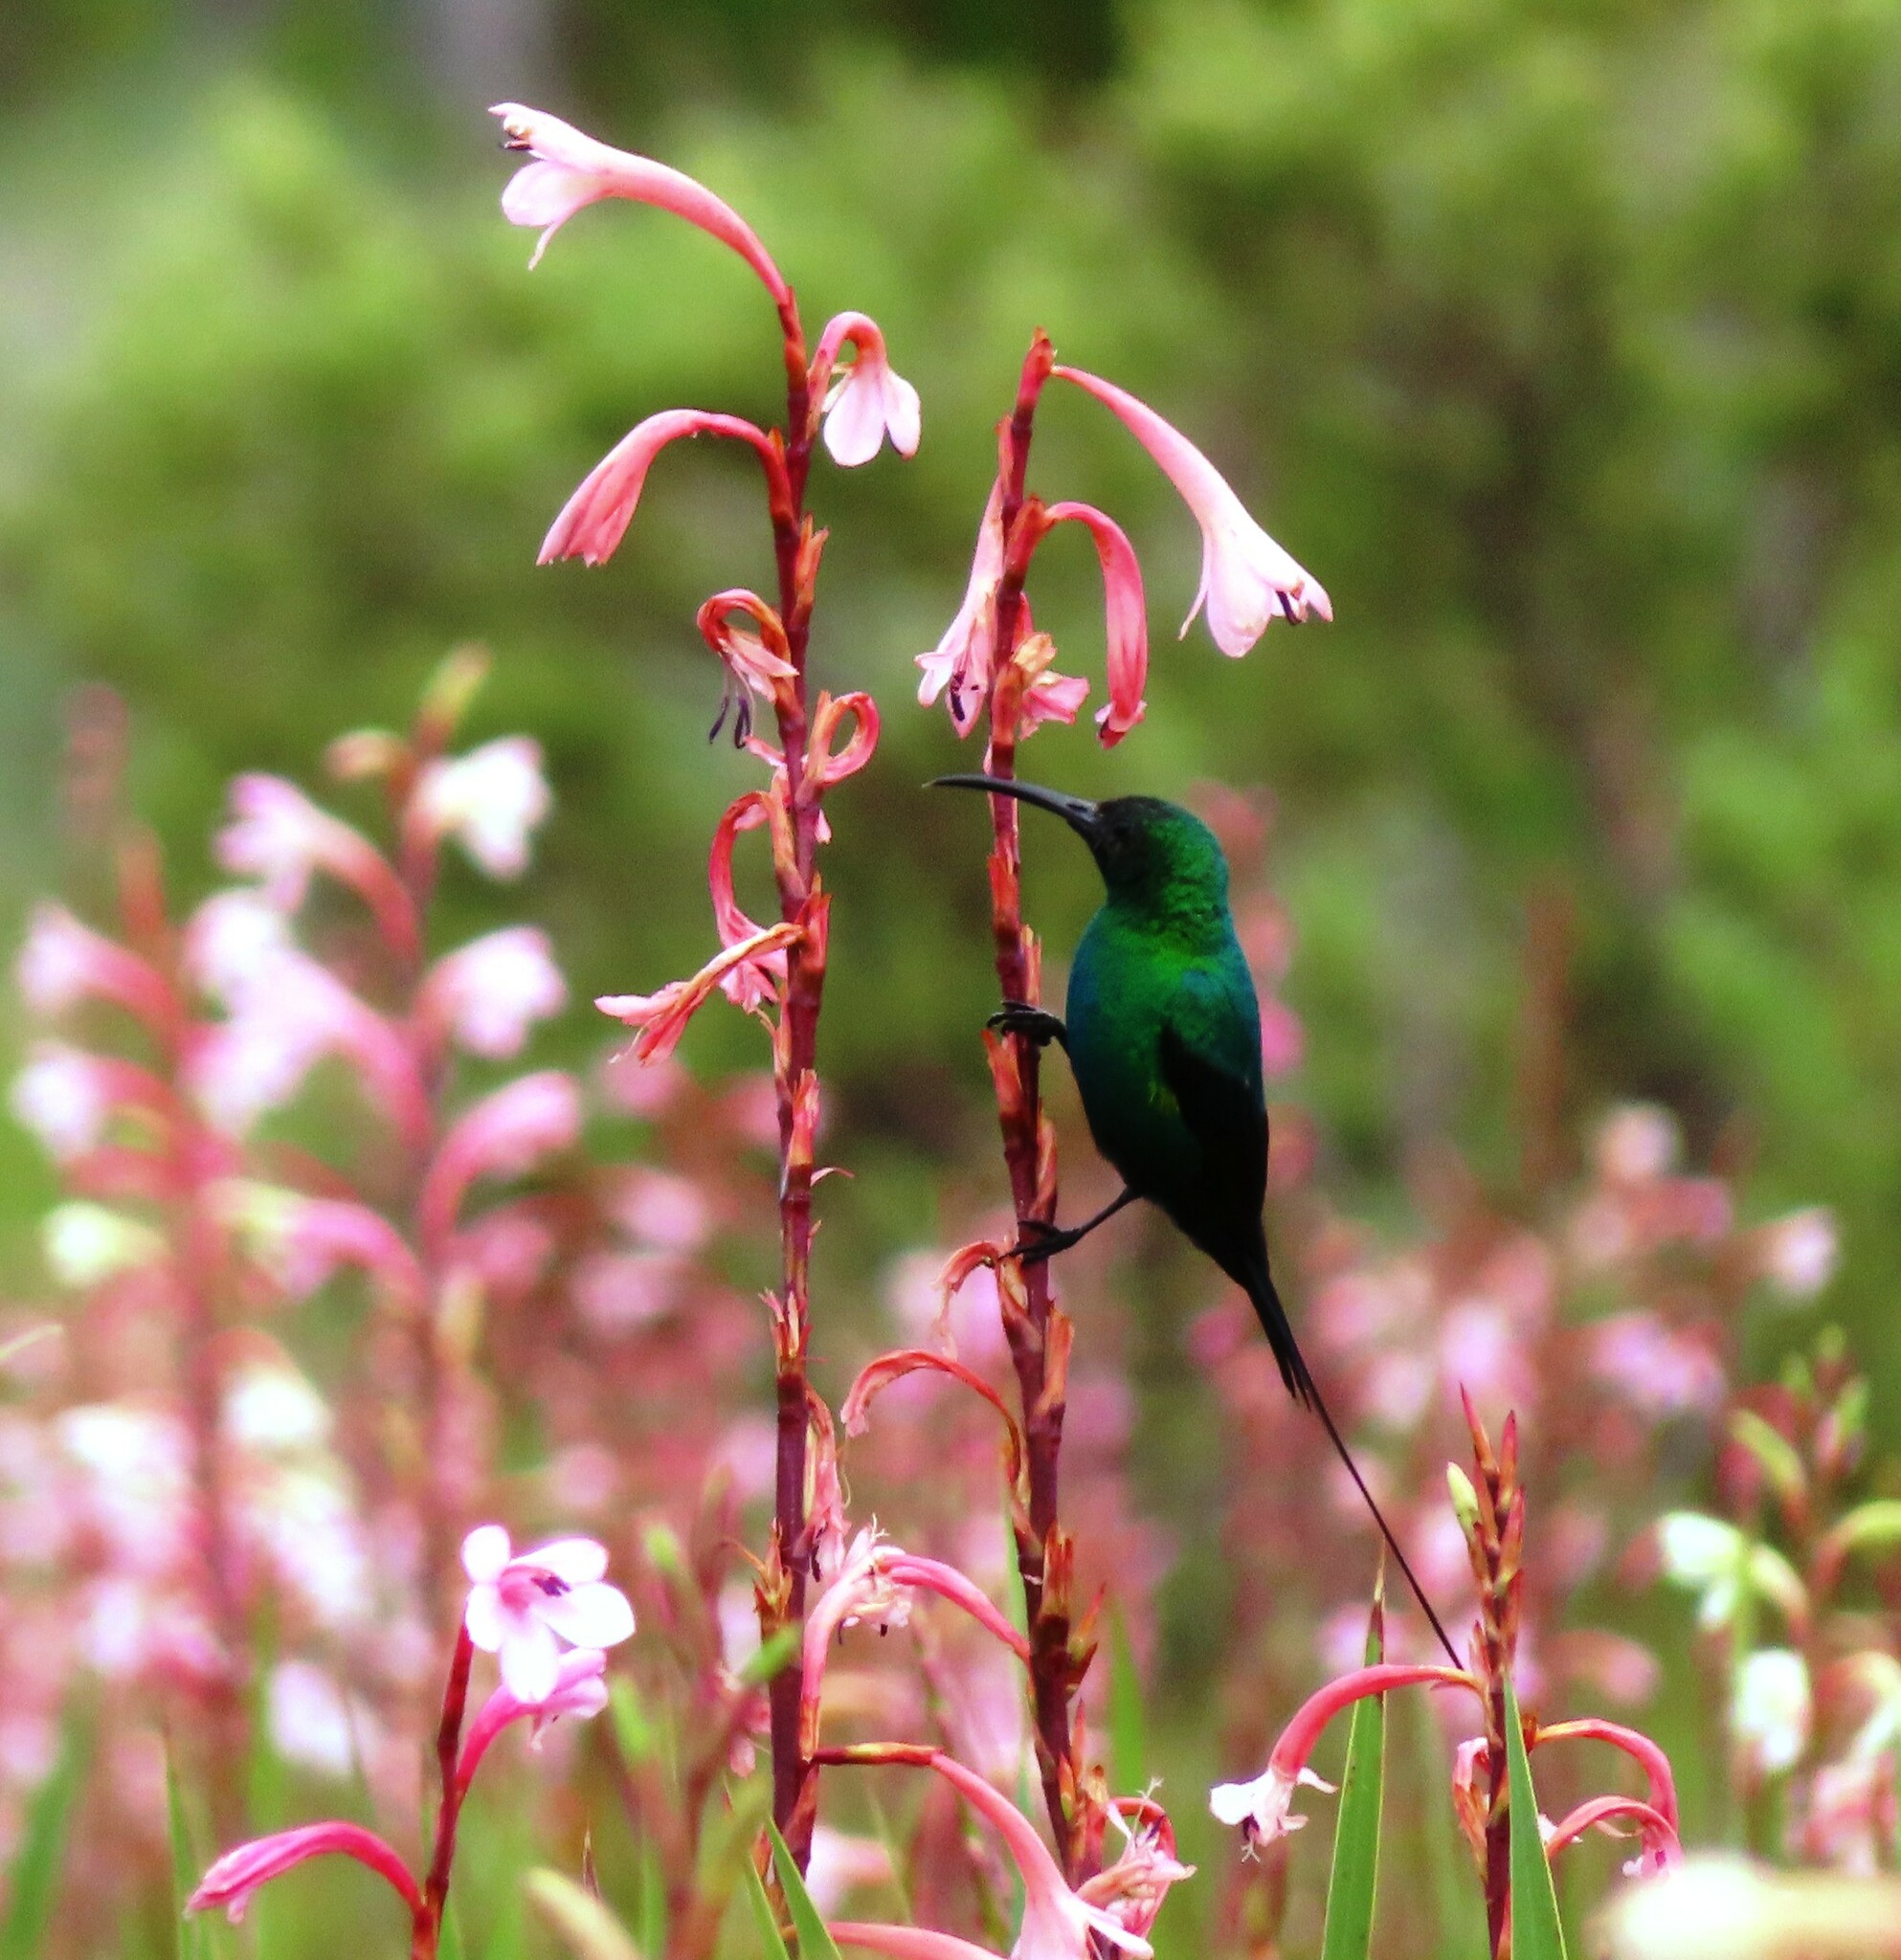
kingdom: Animalia
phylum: Chordata
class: Aves
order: Passeriformes
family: Nectariniidae
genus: Nectarinia
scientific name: Nectarinia famosa
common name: Malachite sunbird
